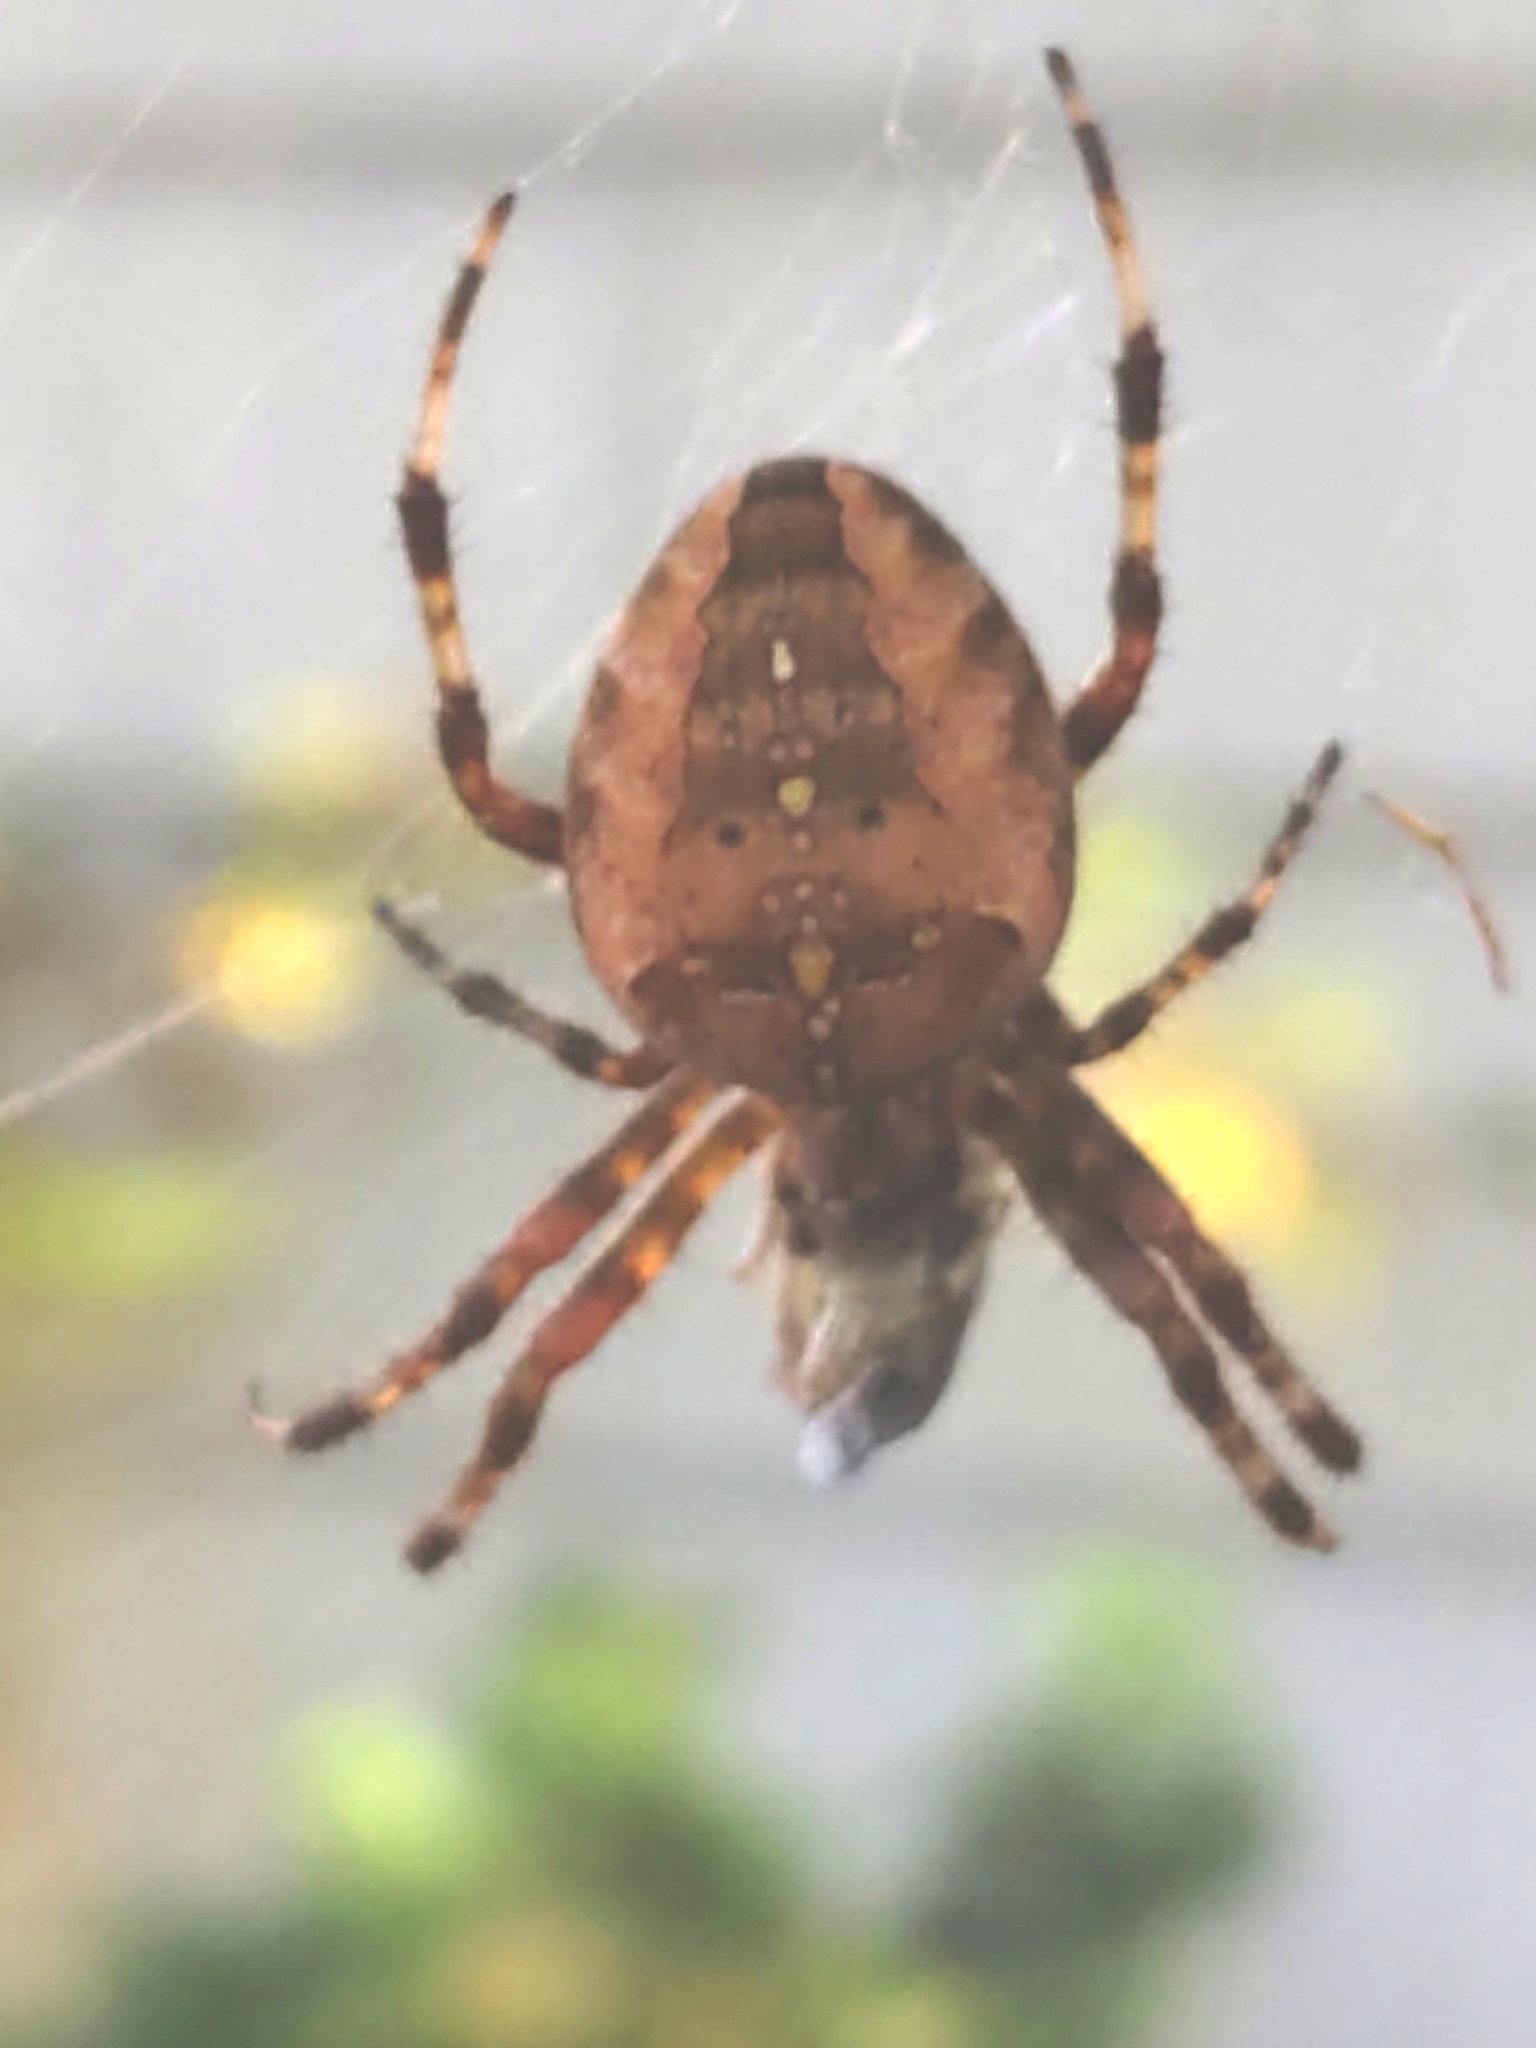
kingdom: Animalia
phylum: Arthropoda
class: Arachnida
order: Araneae
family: Araneidae
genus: Araneus
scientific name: Araneus diadematus
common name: Cross orbweaver
